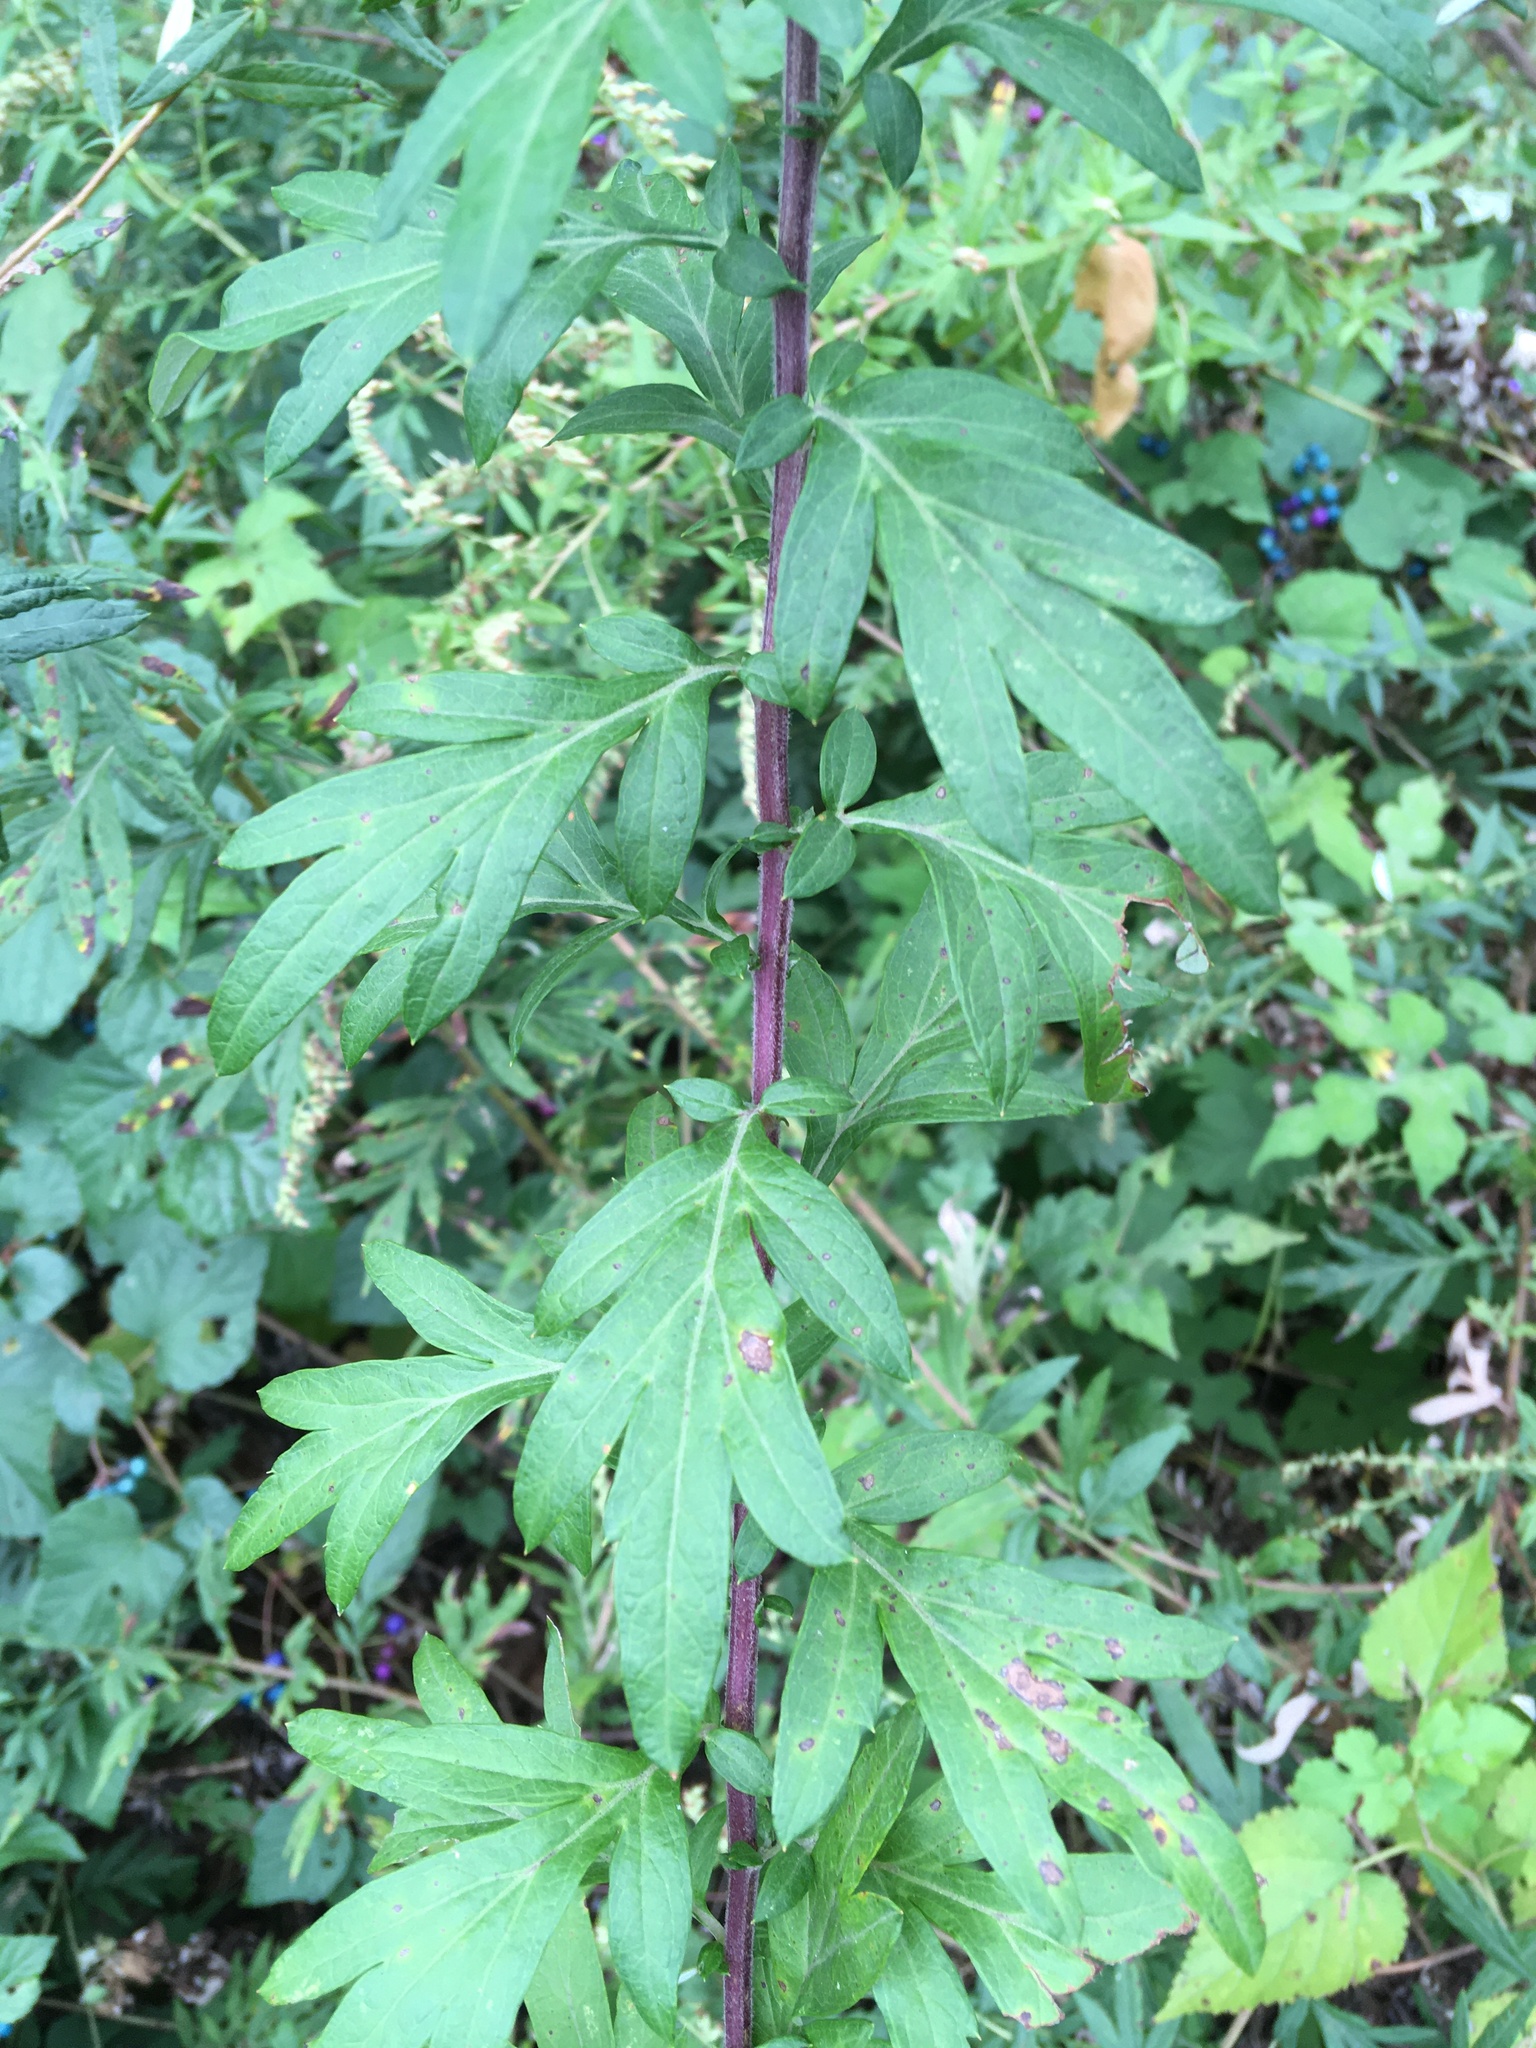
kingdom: Plantae
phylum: Tracheophyta
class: Magnoliopsida
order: Asterales
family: Asteraceae
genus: Artemisia
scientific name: Artemisia vulgaris
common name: Mugwort
